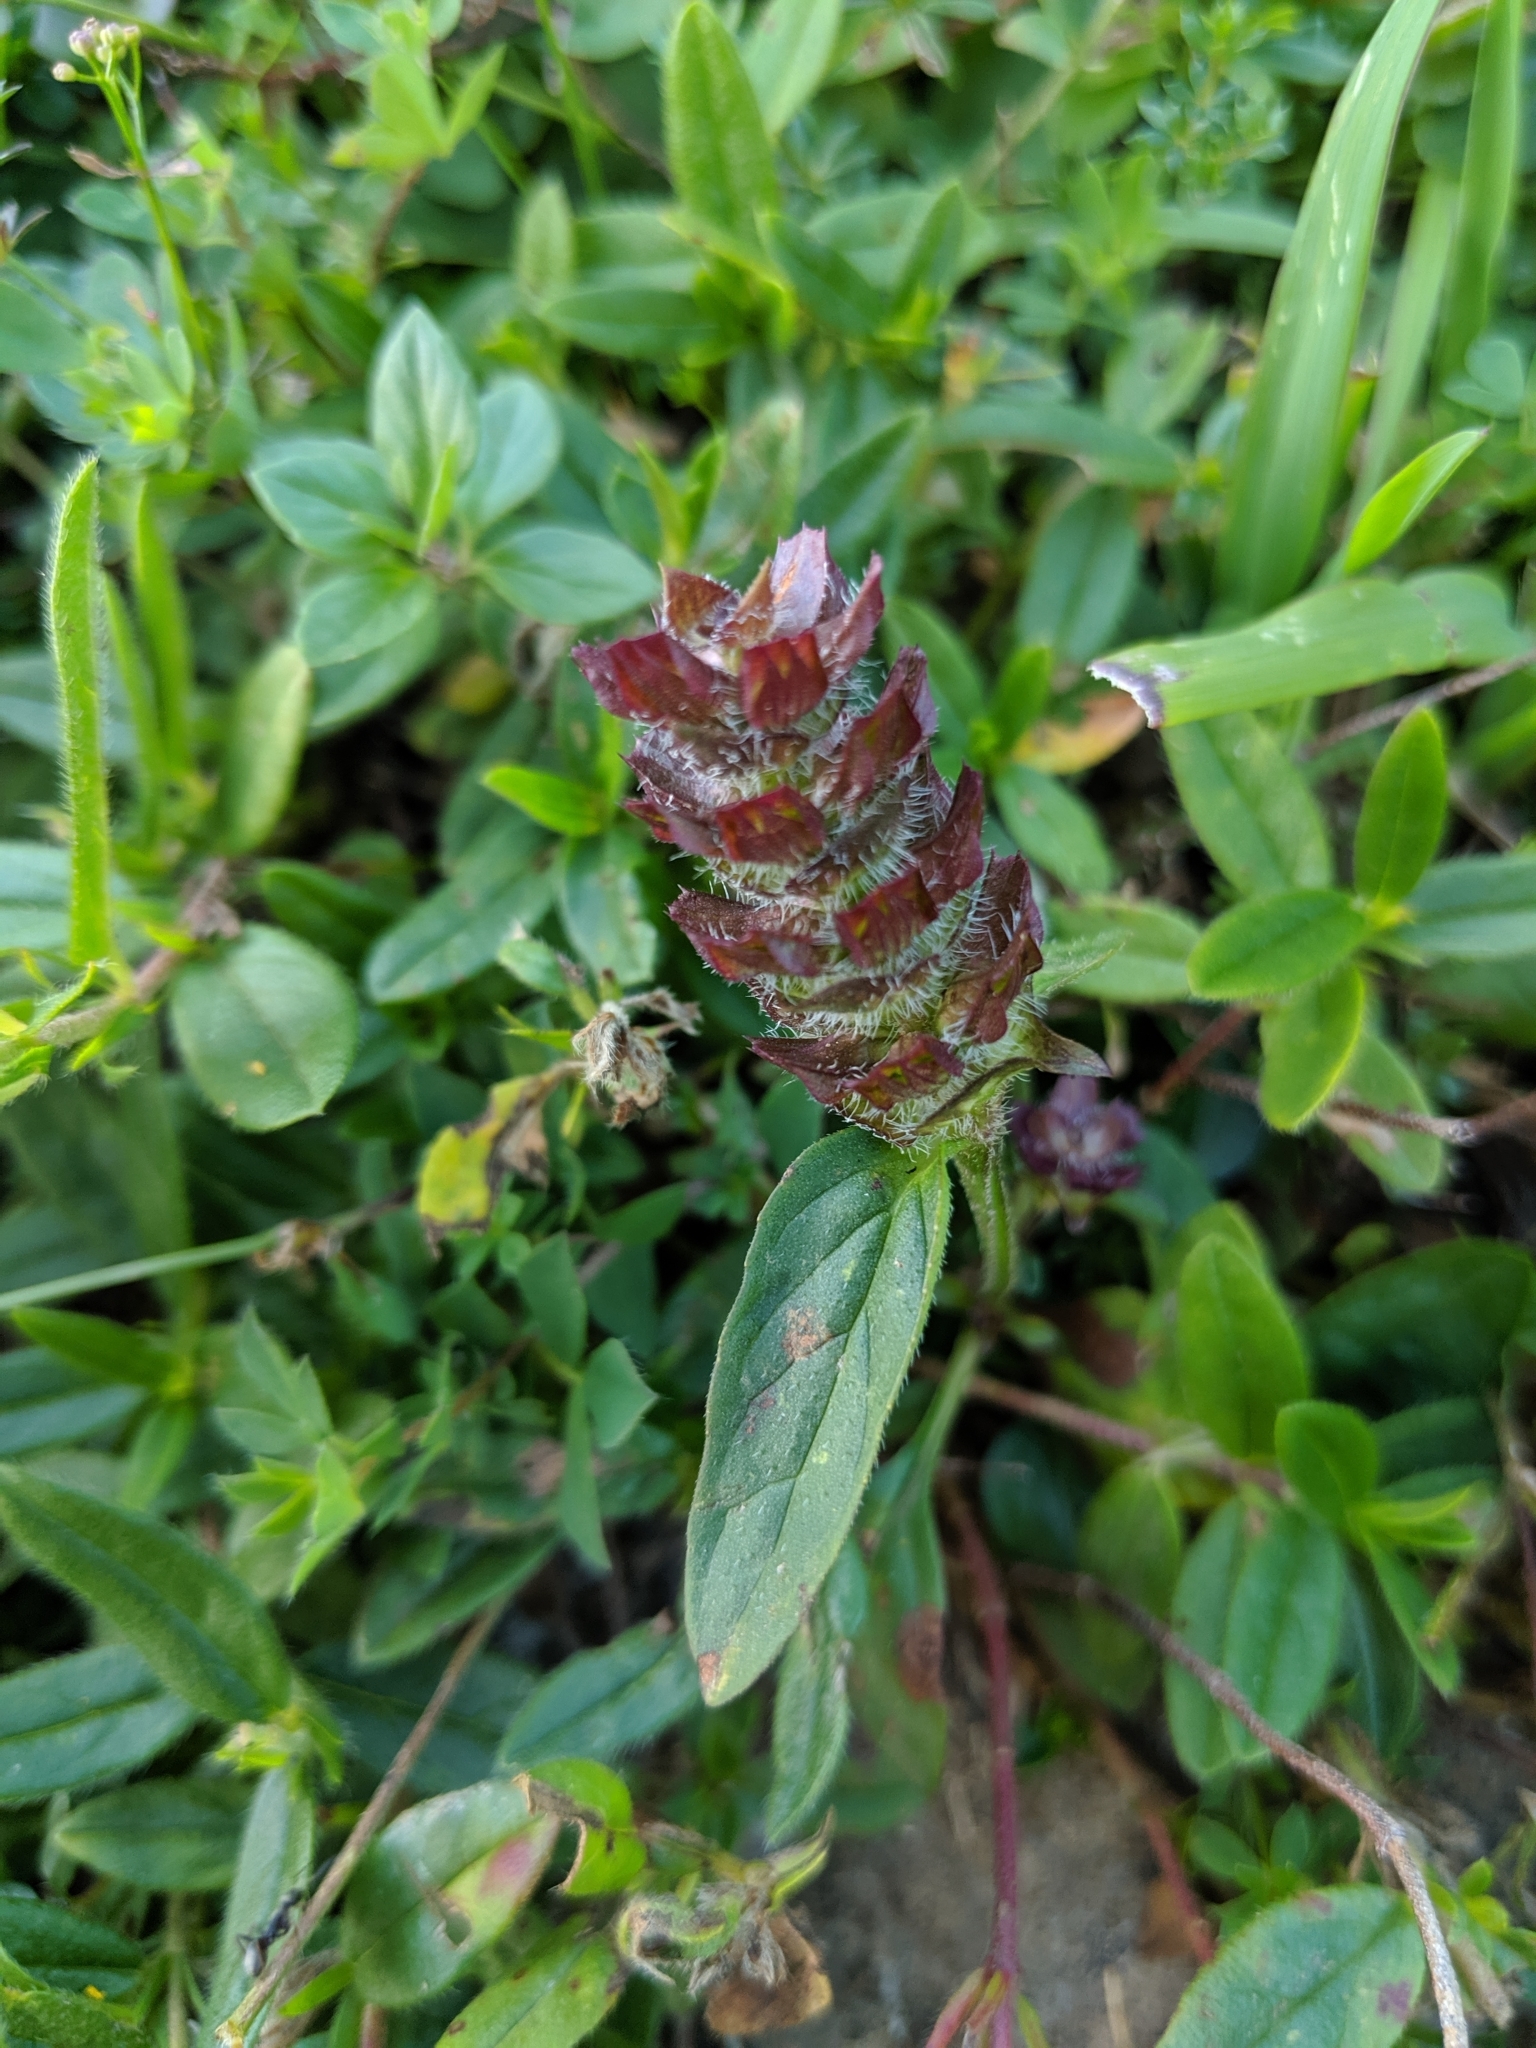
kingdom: Plantae
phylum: Tracheophyta
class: Magnoliopsida
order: Lamiales
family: Lamiaceae
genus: Prunella
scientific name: Prunella vulgaris
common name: Heal-all
